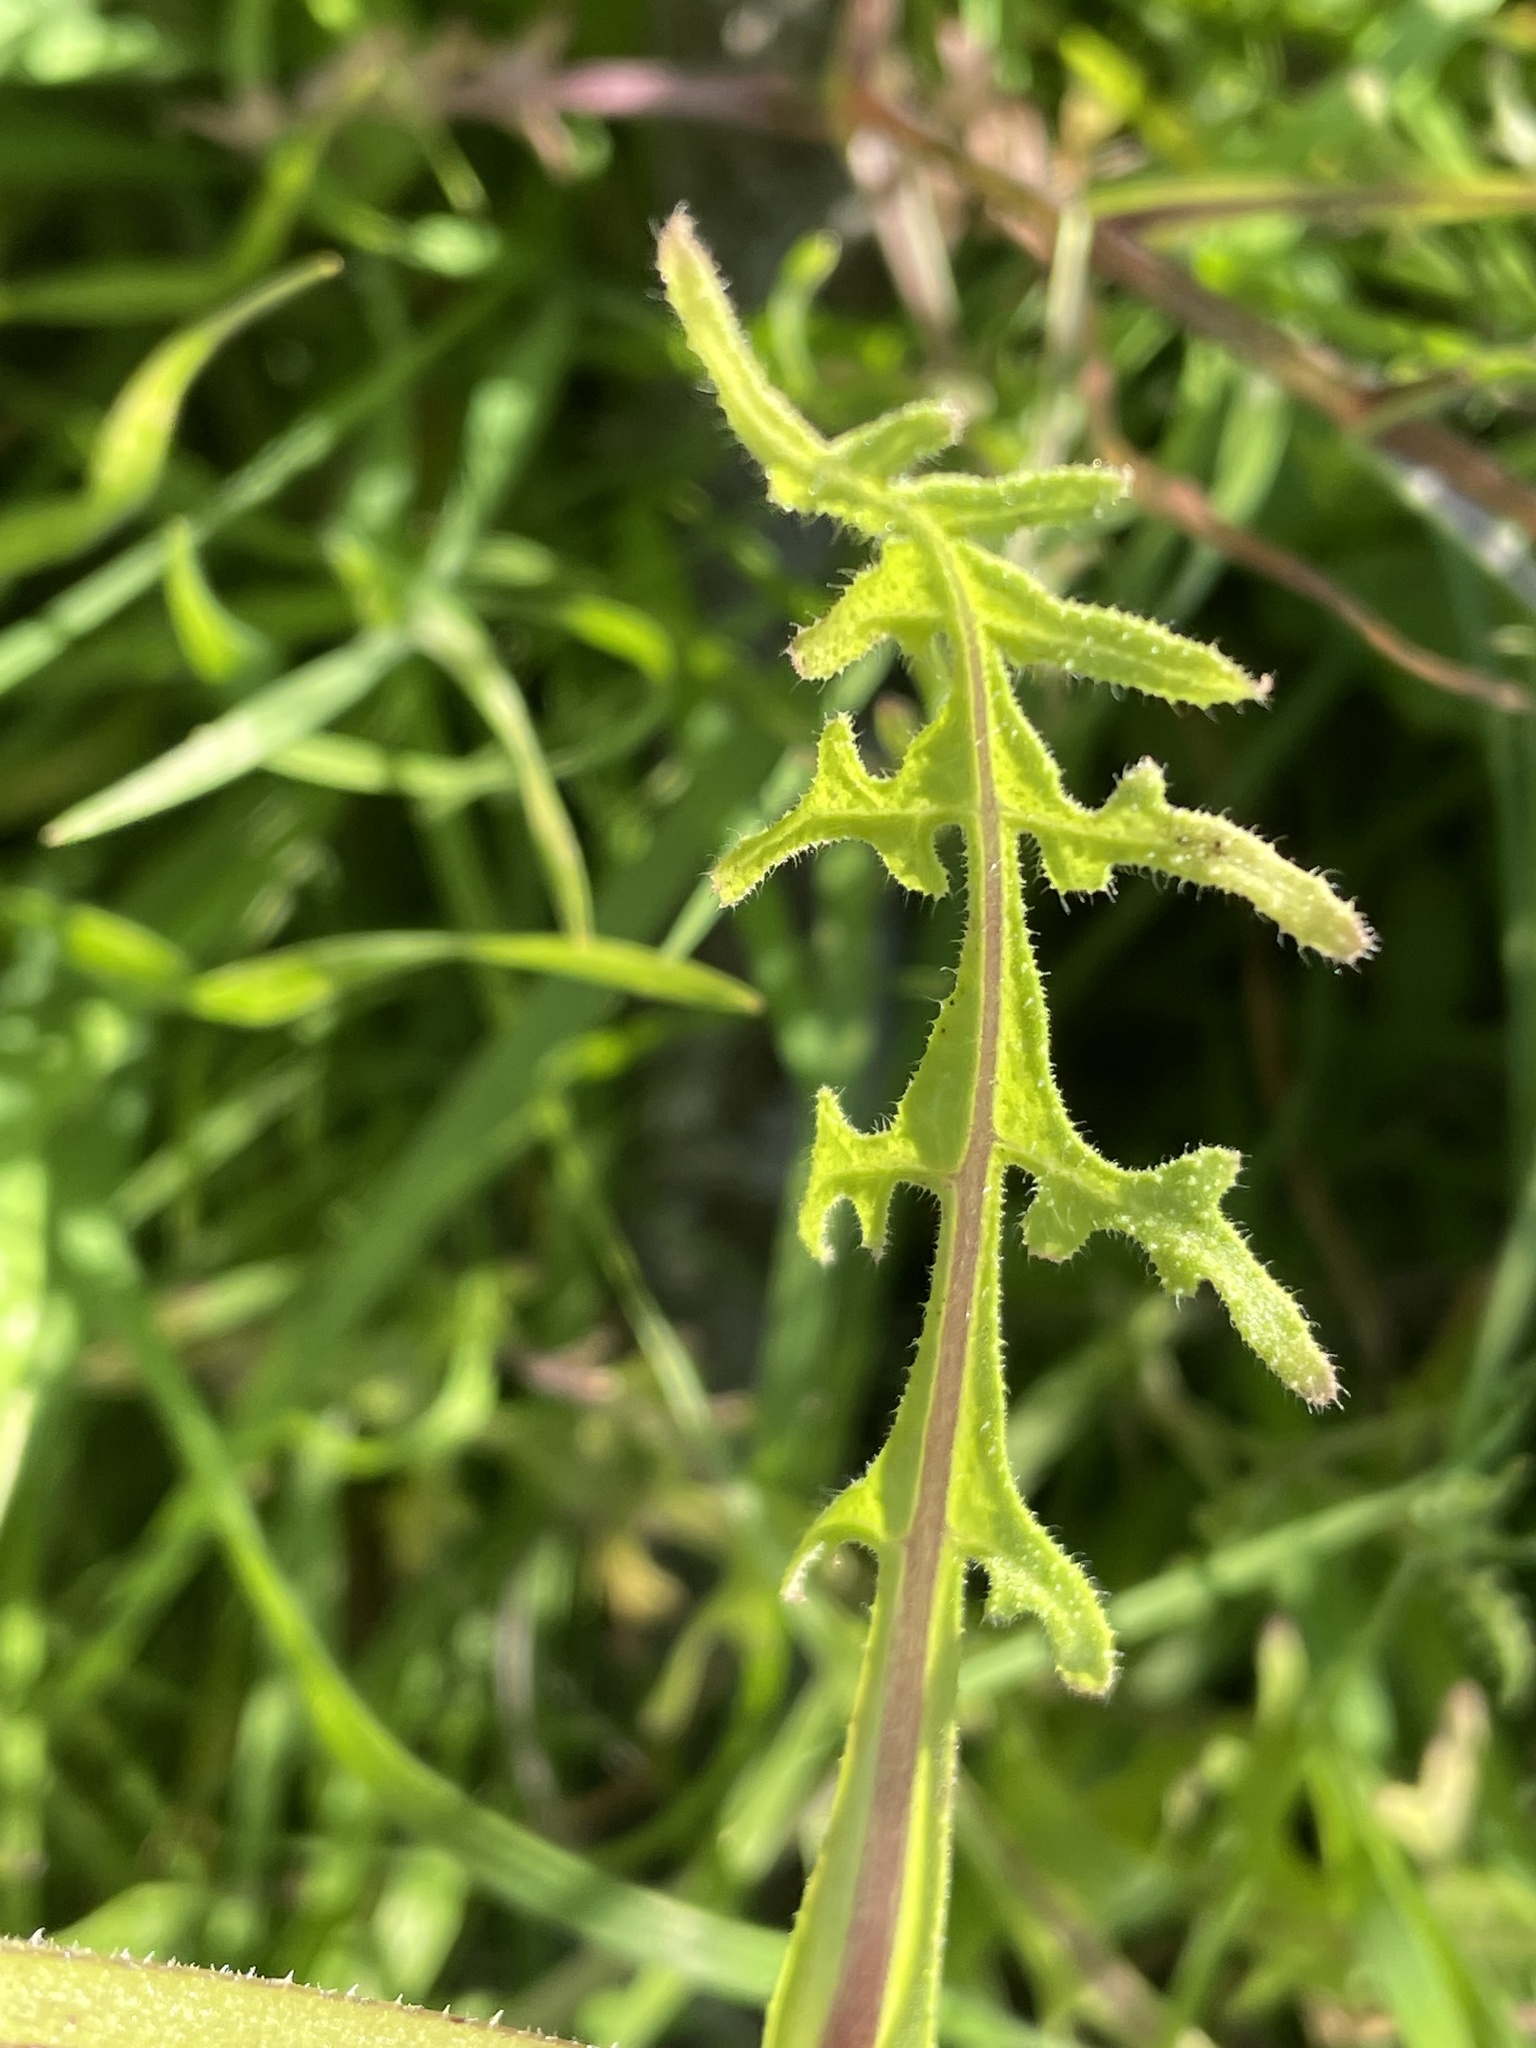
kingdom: Plantae
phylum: Tracheophyta
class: Magnoliopsida
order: Boraginales
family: Hydrophyllaceae
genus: Pholistoma
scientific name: Pholistoma auritum
